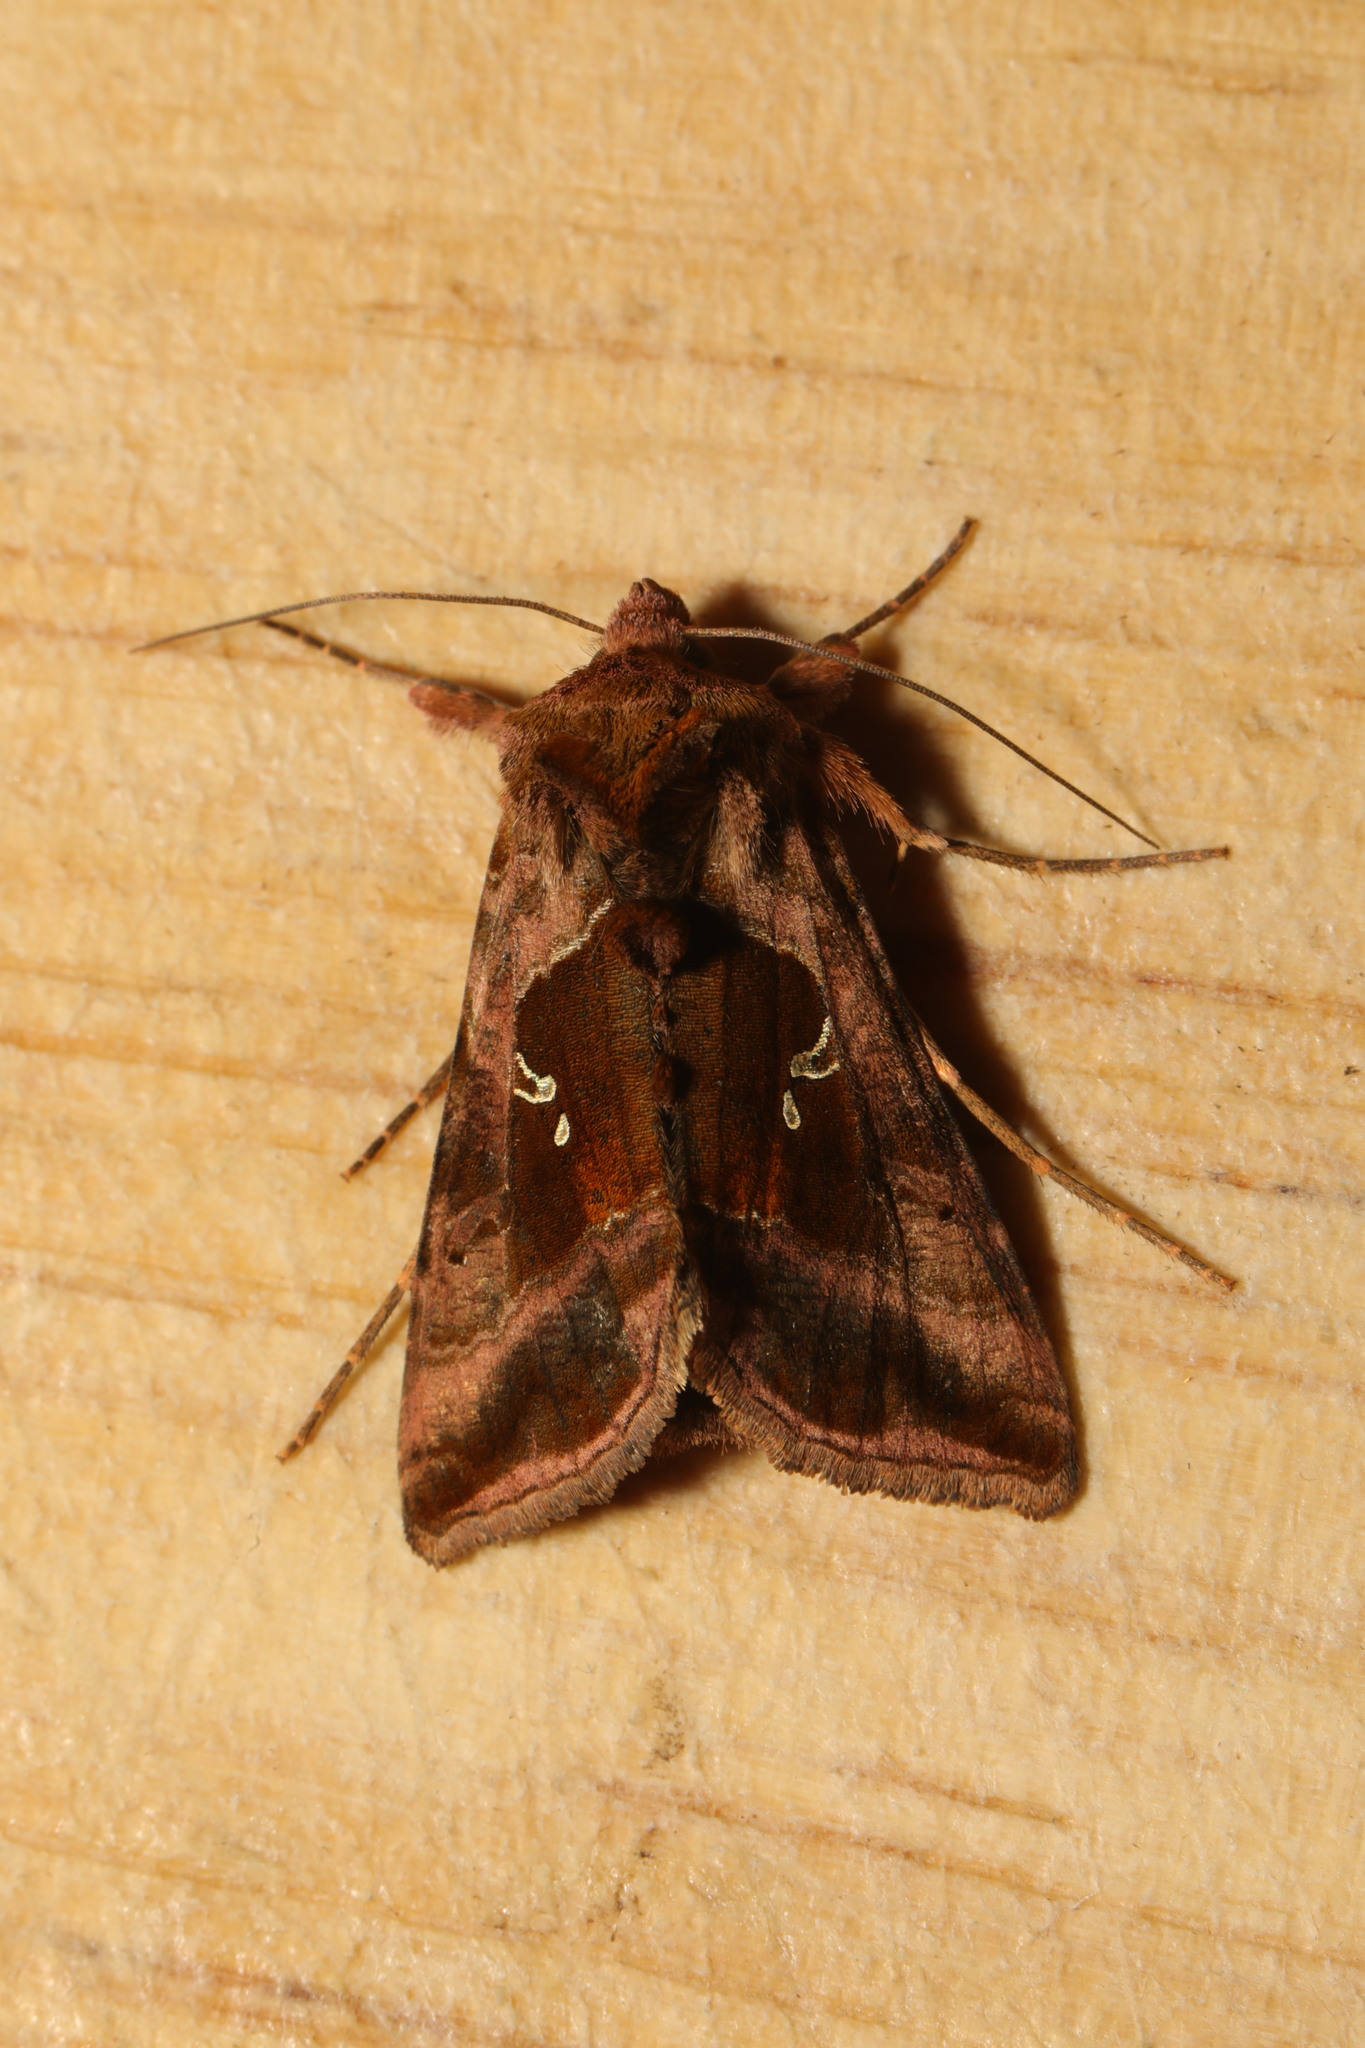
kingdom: Animalia
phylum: Arthropoda
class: Insecta
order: Lepidoptera
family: Noctuidae
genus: Autographa
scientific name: Autographa jota
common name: Plain golden y
